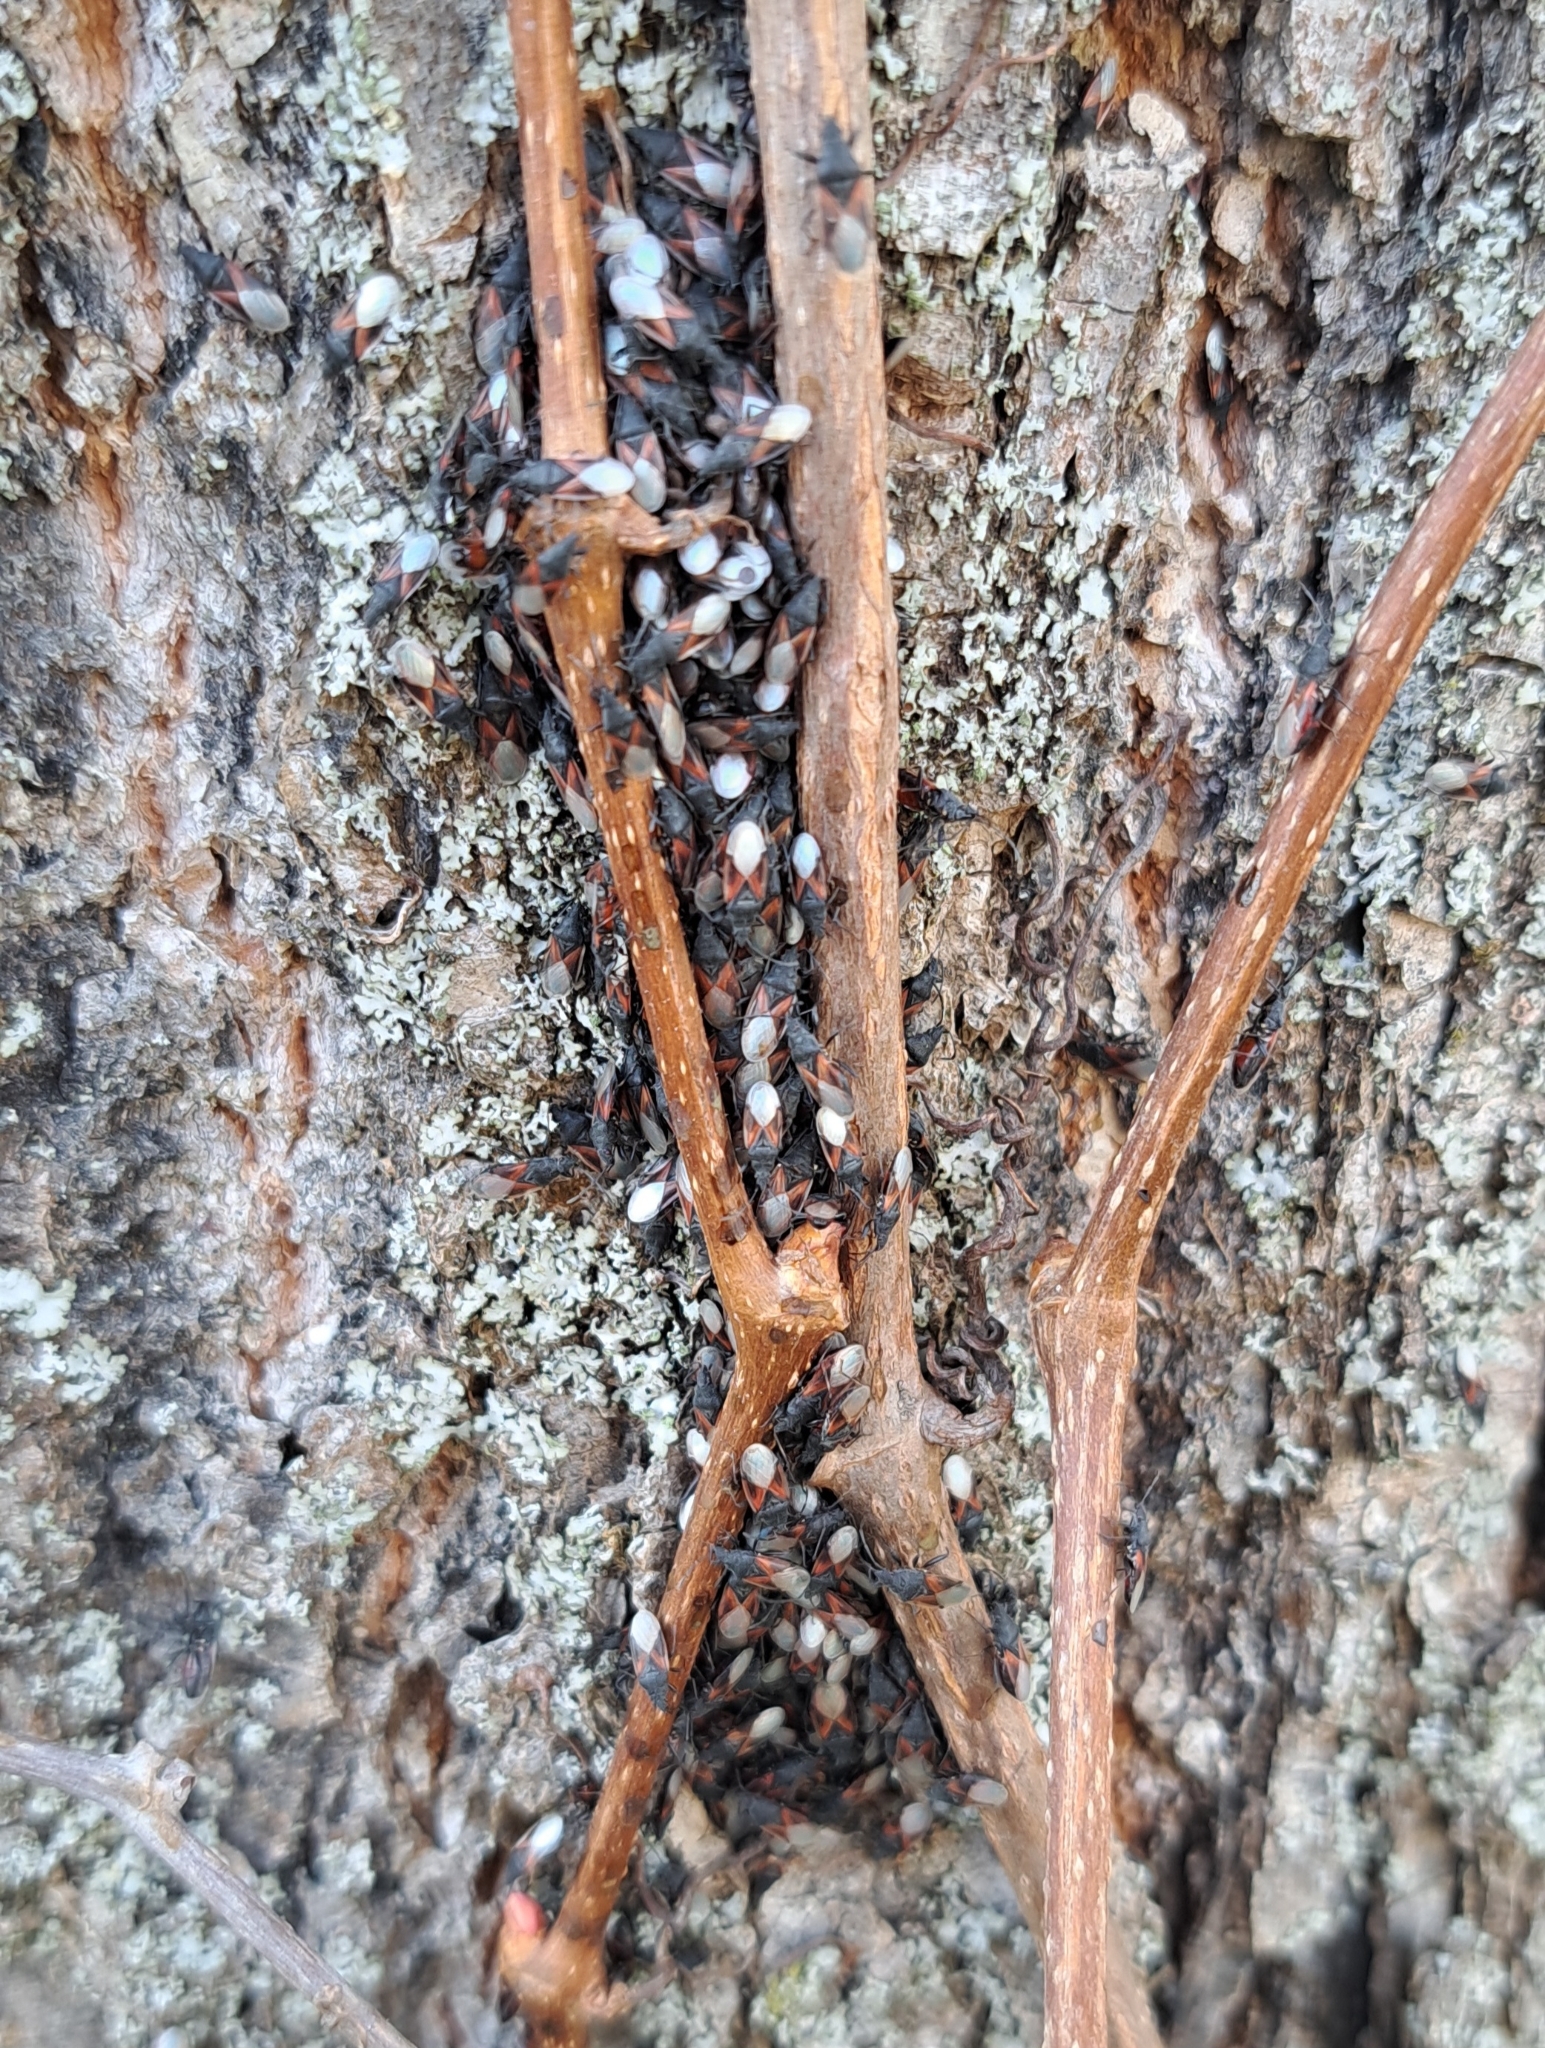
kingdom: Animalia
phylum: Arthropoda
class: Insecta
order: Hemiptera
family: Oxycarenidae
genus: Oxycarenus
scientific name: Oxycarenus lavaterae
